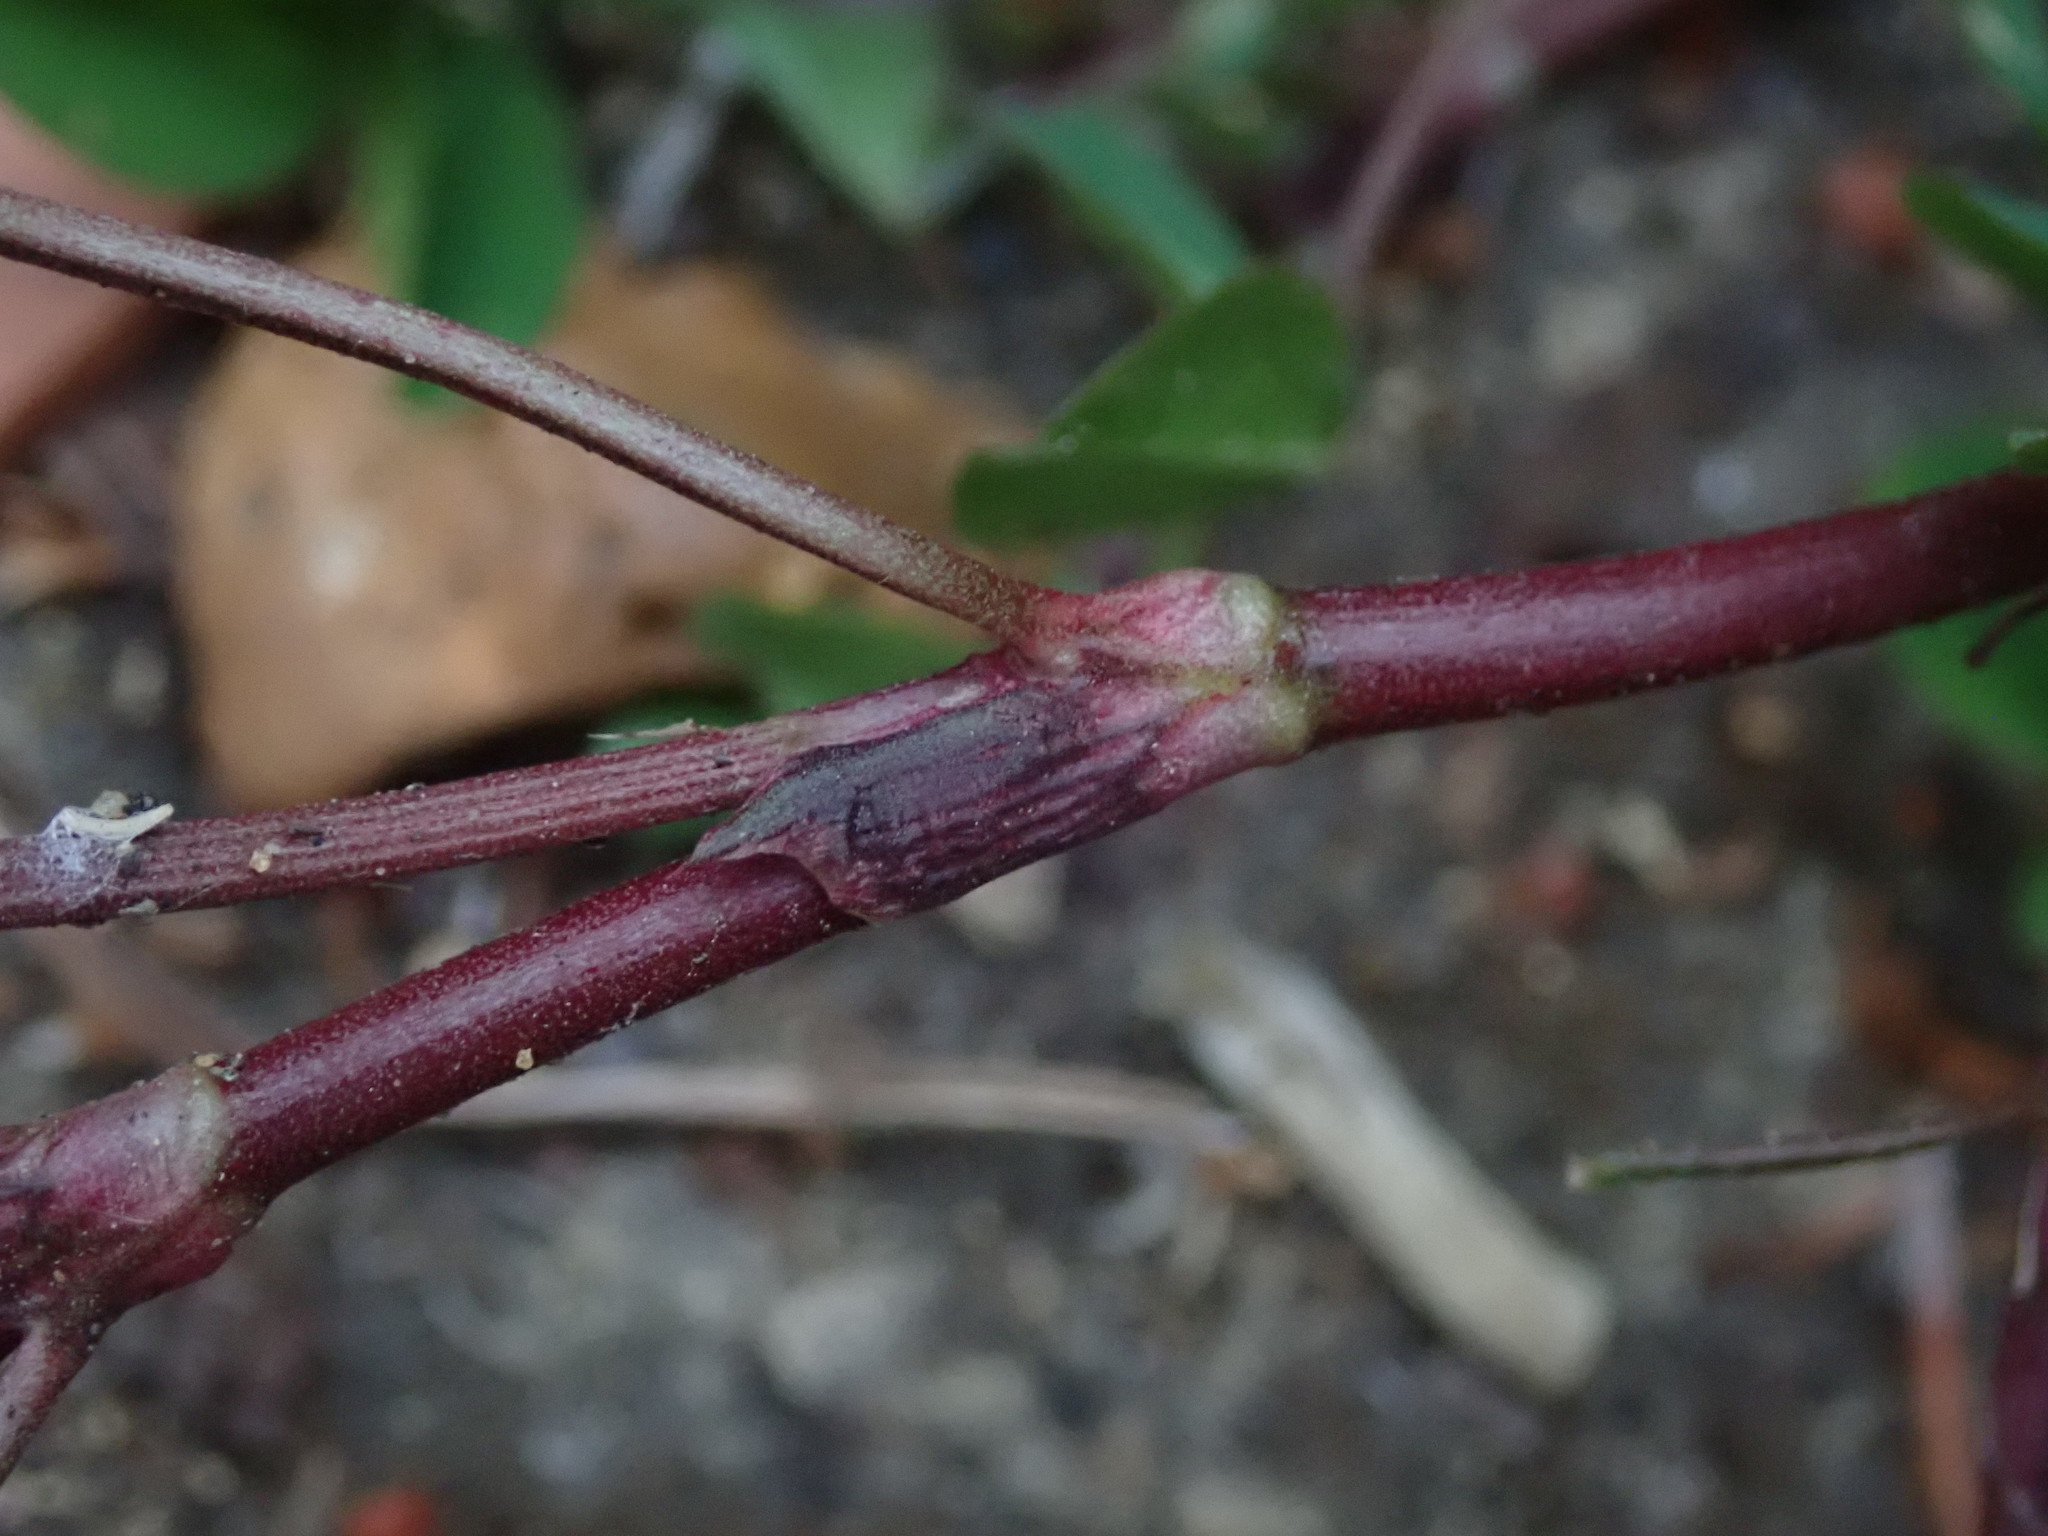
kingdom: Plantae
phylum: Tracheophyta
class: Magnoliopsida
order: Fabales
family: Fabaceae
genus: Trifolium
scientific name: Trifolium repens
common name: White clover
